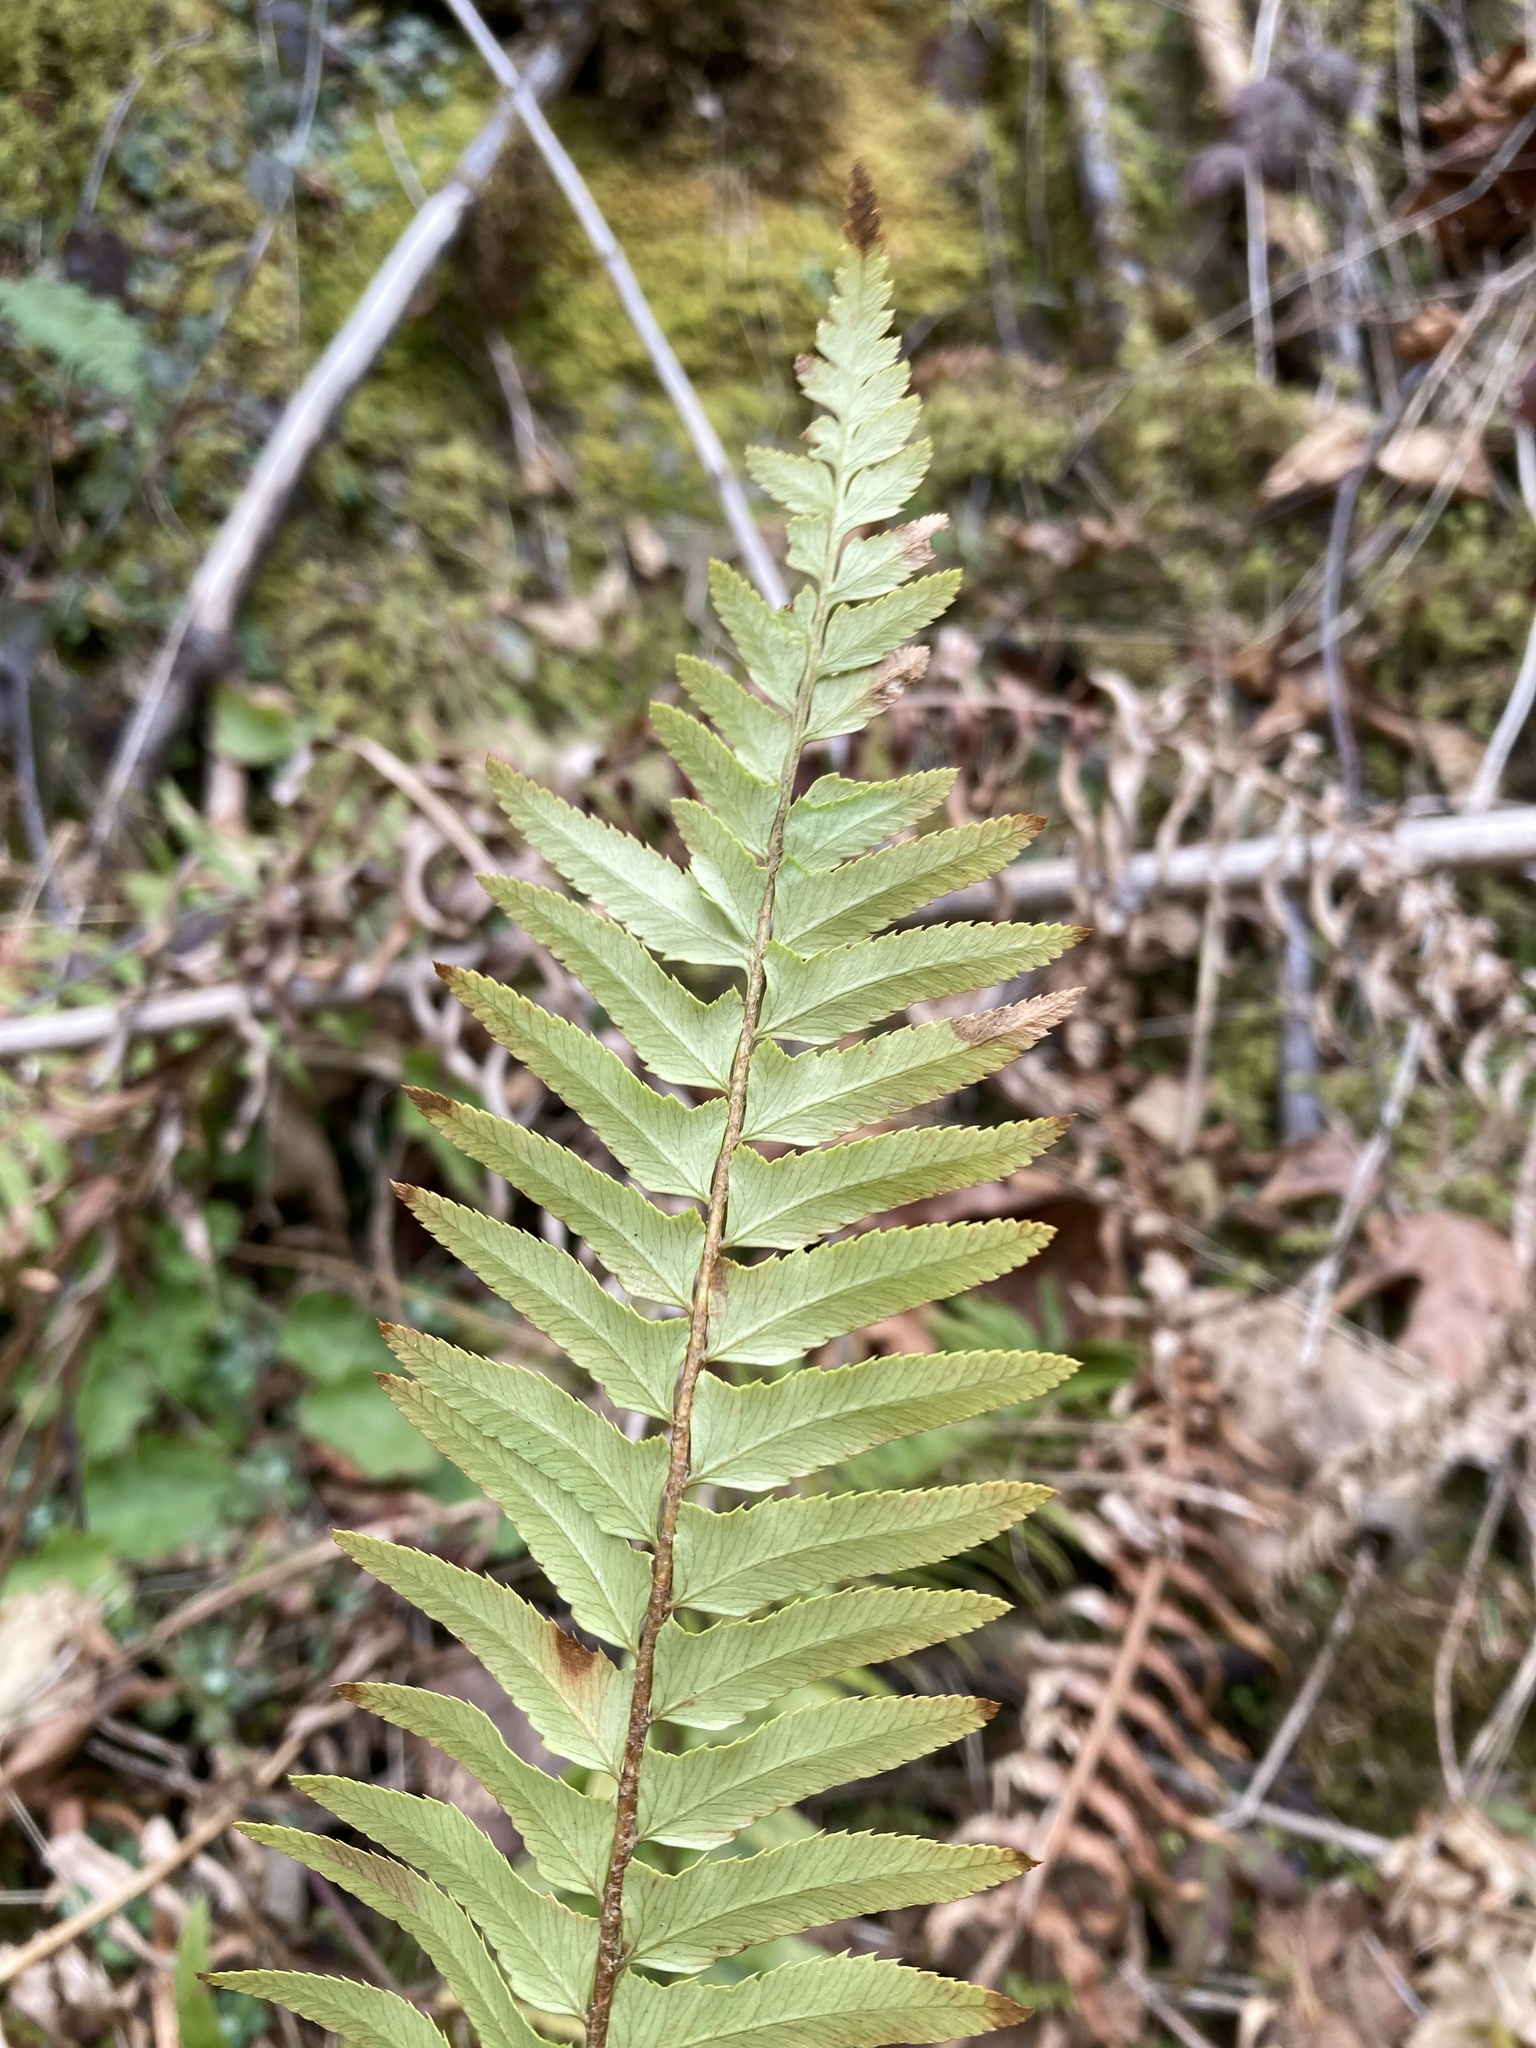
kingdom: Plantae
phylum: Tracheophyta
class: Polypodiopsida
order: Polypodiales
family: Dryopteridaceae
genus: Polystichum
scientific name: Polystichum munitum
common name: Western sword-fern
